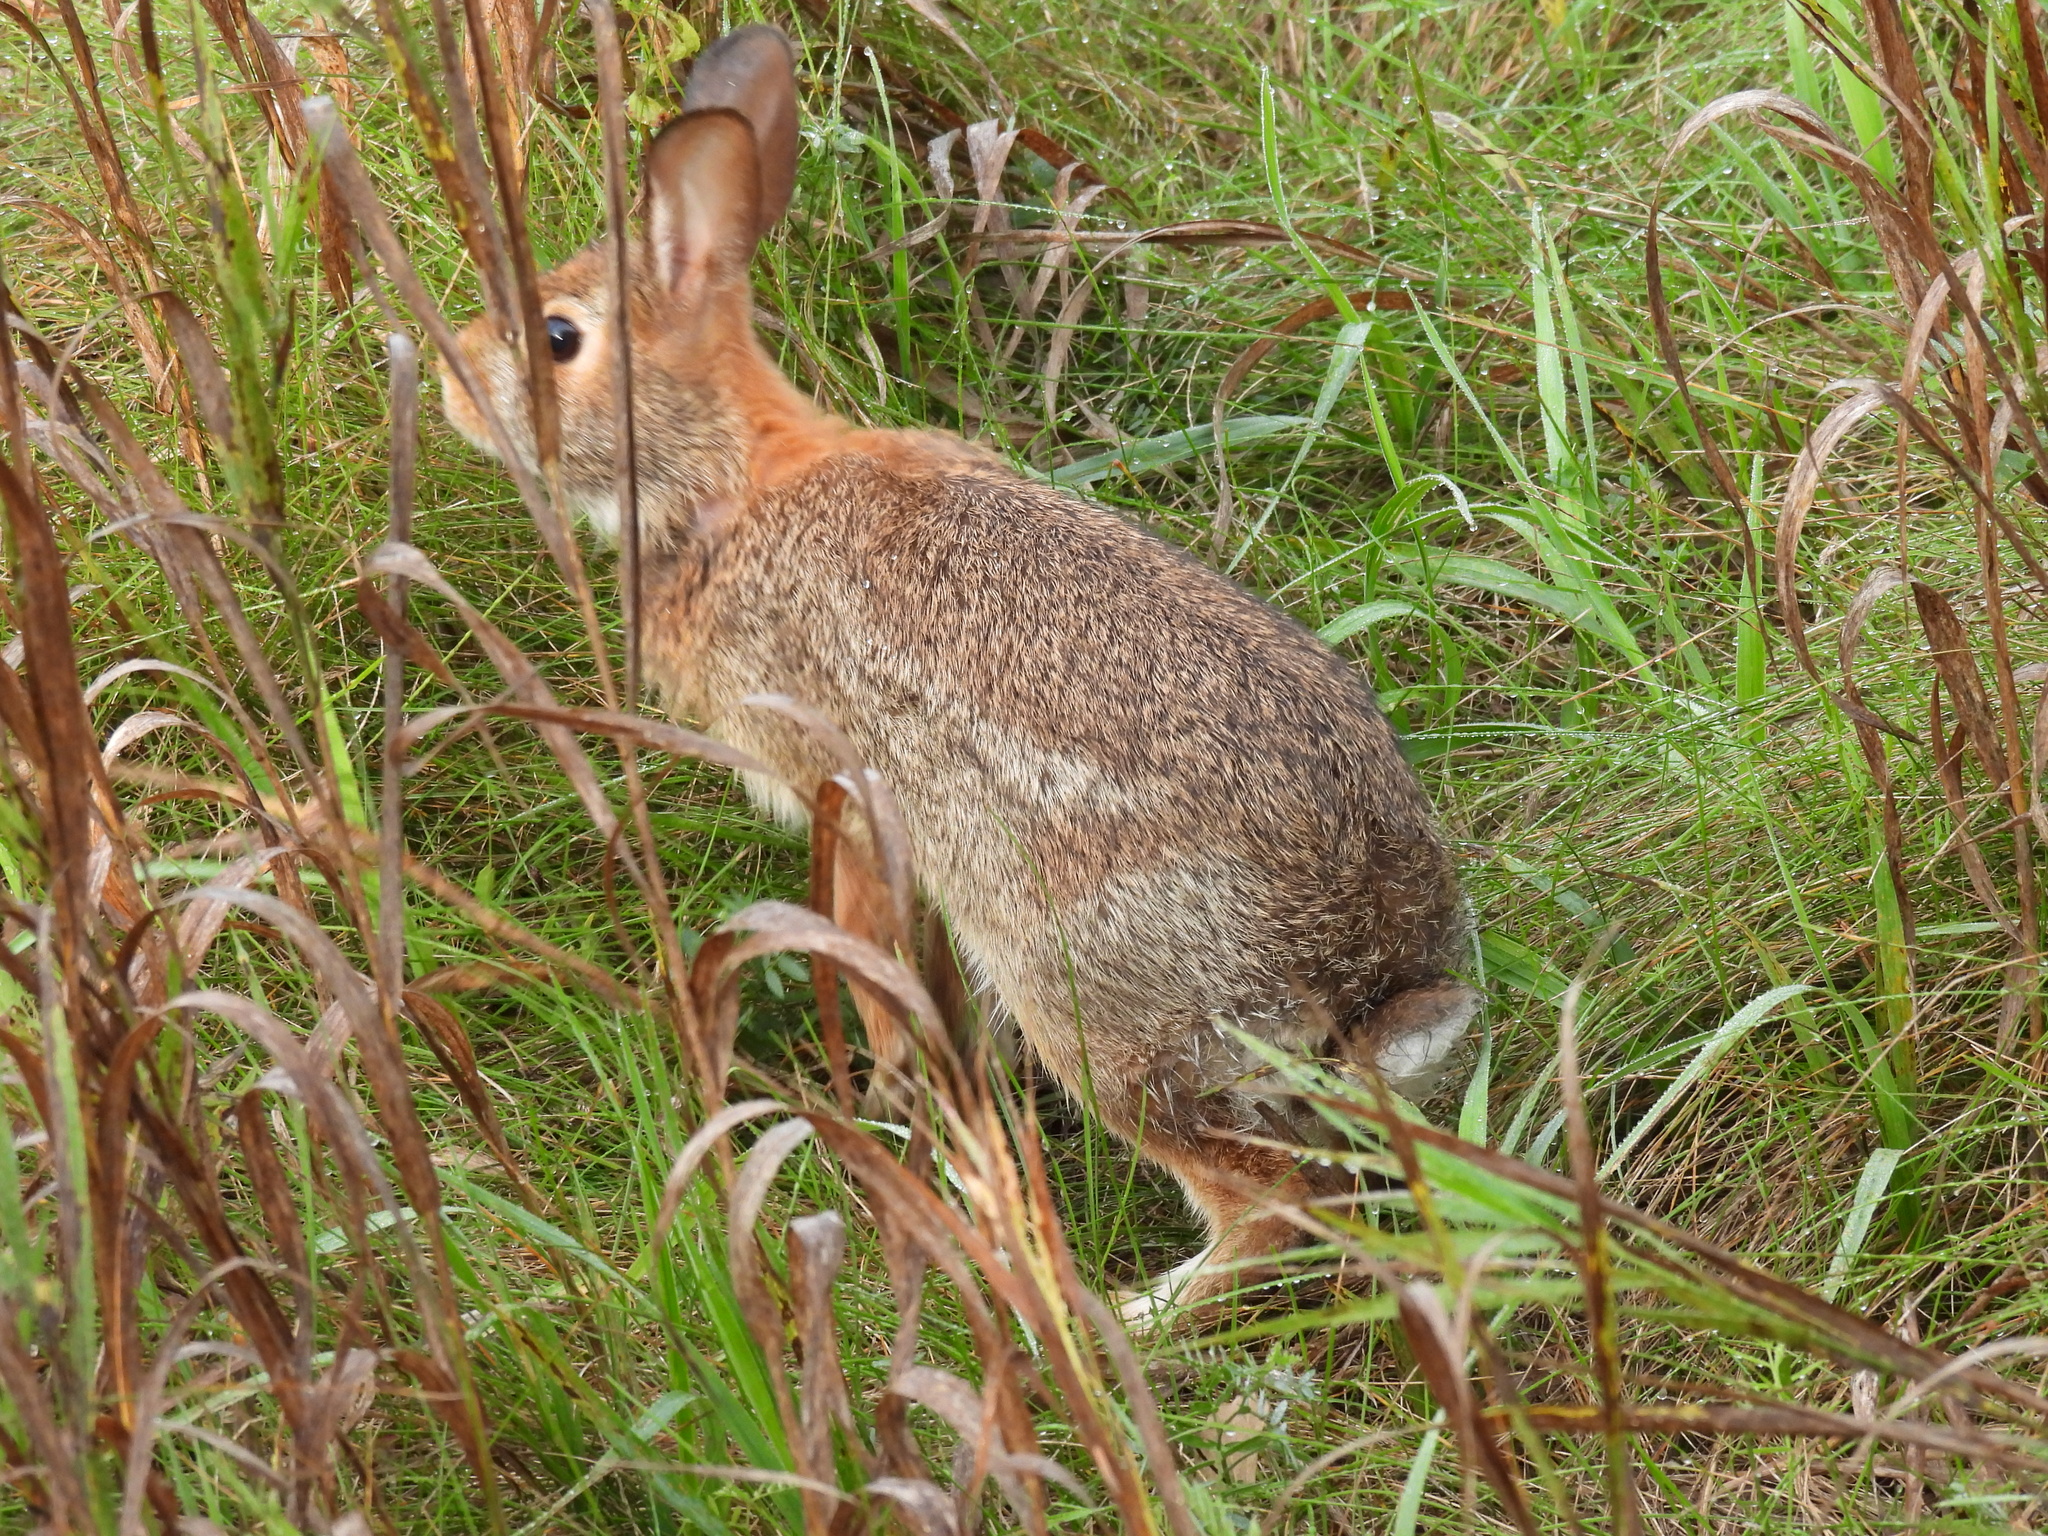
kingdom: Animalia
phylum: Chordata
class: Mammalia
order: Lagomorpha
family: Leporidae
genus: Sylvilagus
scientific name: Sylvilagus floridanus
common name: Eastern cottontail
